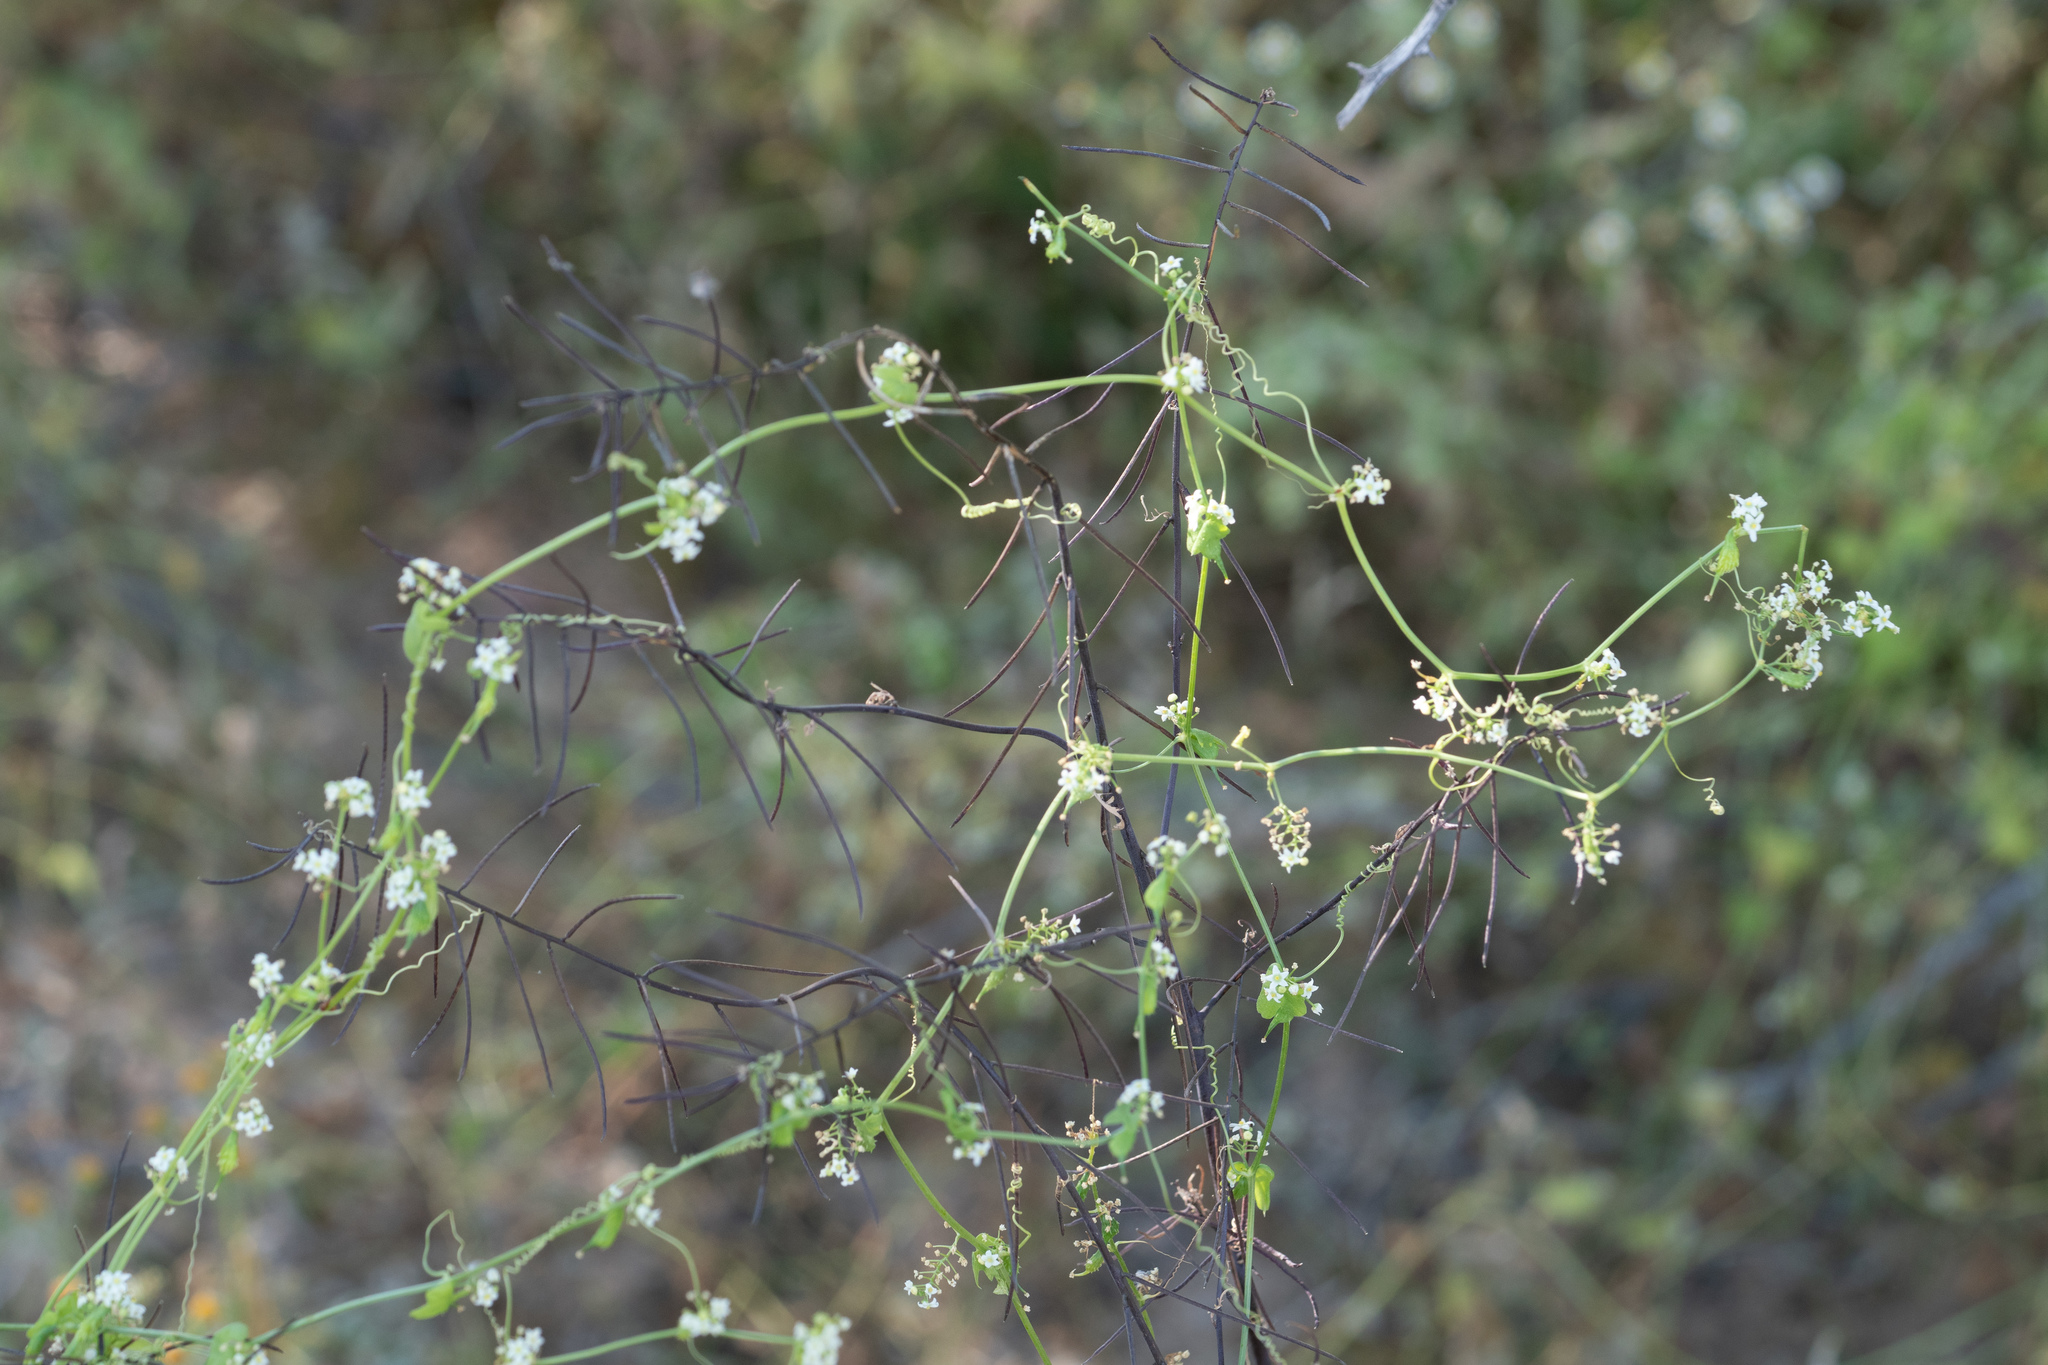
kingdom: Plantae
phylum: Tracheophyta
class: Magnoliopsida
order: Cucurbitales
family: Cucurbitaceae
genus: Echinopepon
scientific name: Echinopepon bigelovii
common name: Desert starvine
